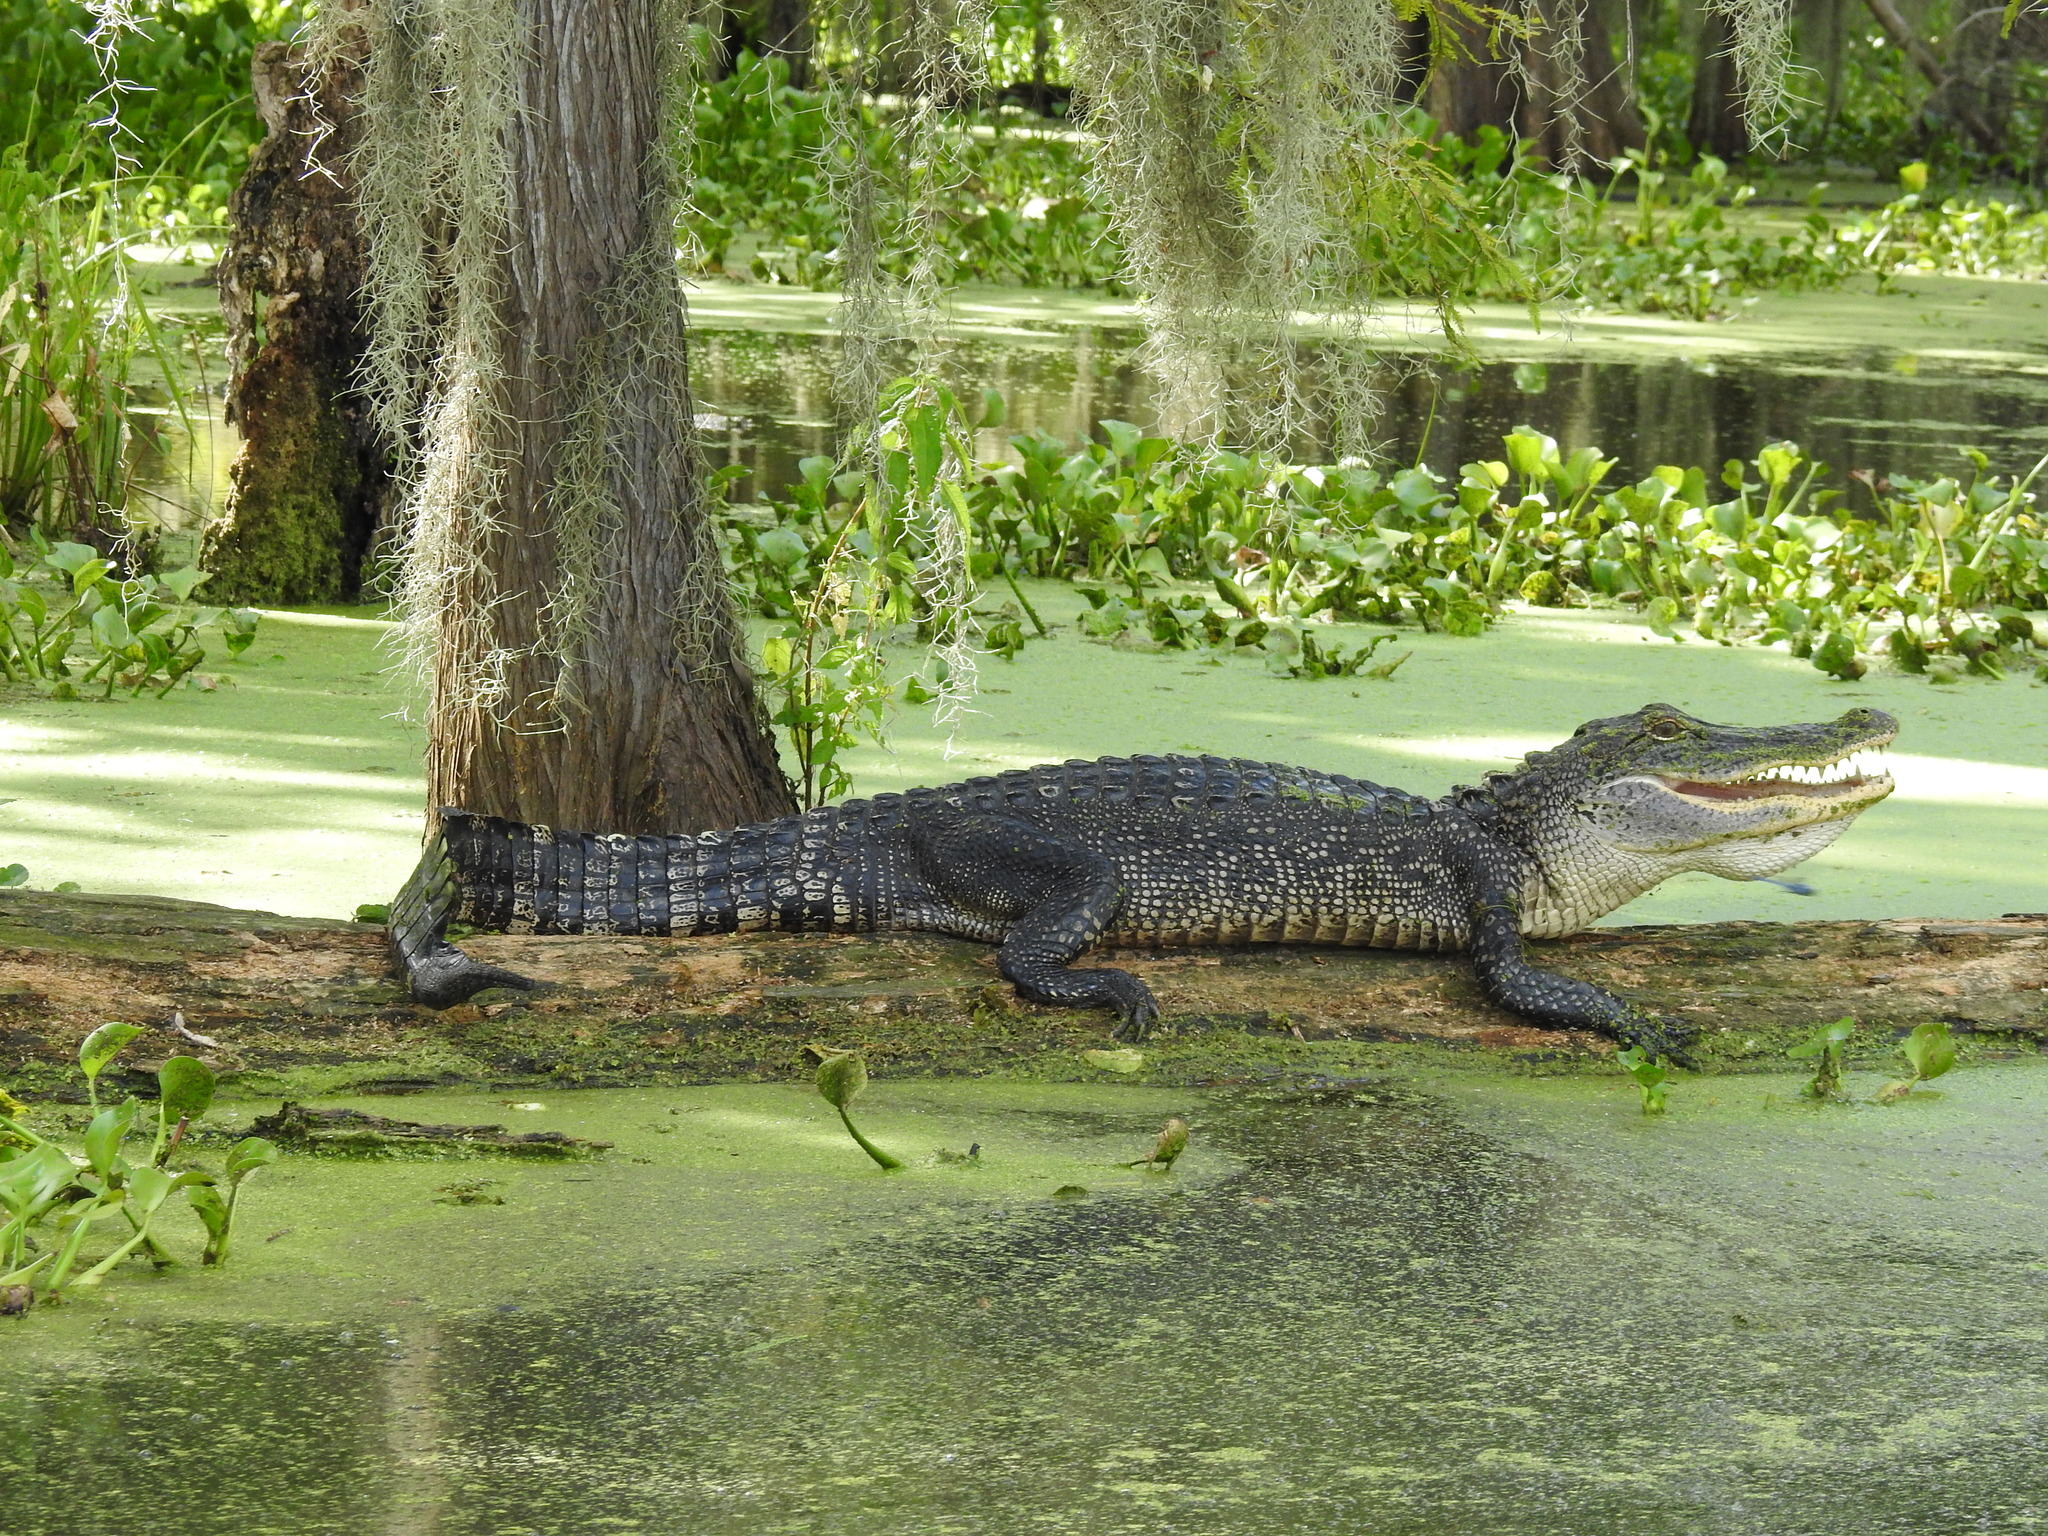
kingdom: Animalia
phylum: Chordata
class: Crocodylia
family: Alligatoridae
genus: Alligator
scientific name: Alligator mississippiensis
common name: American alligator
